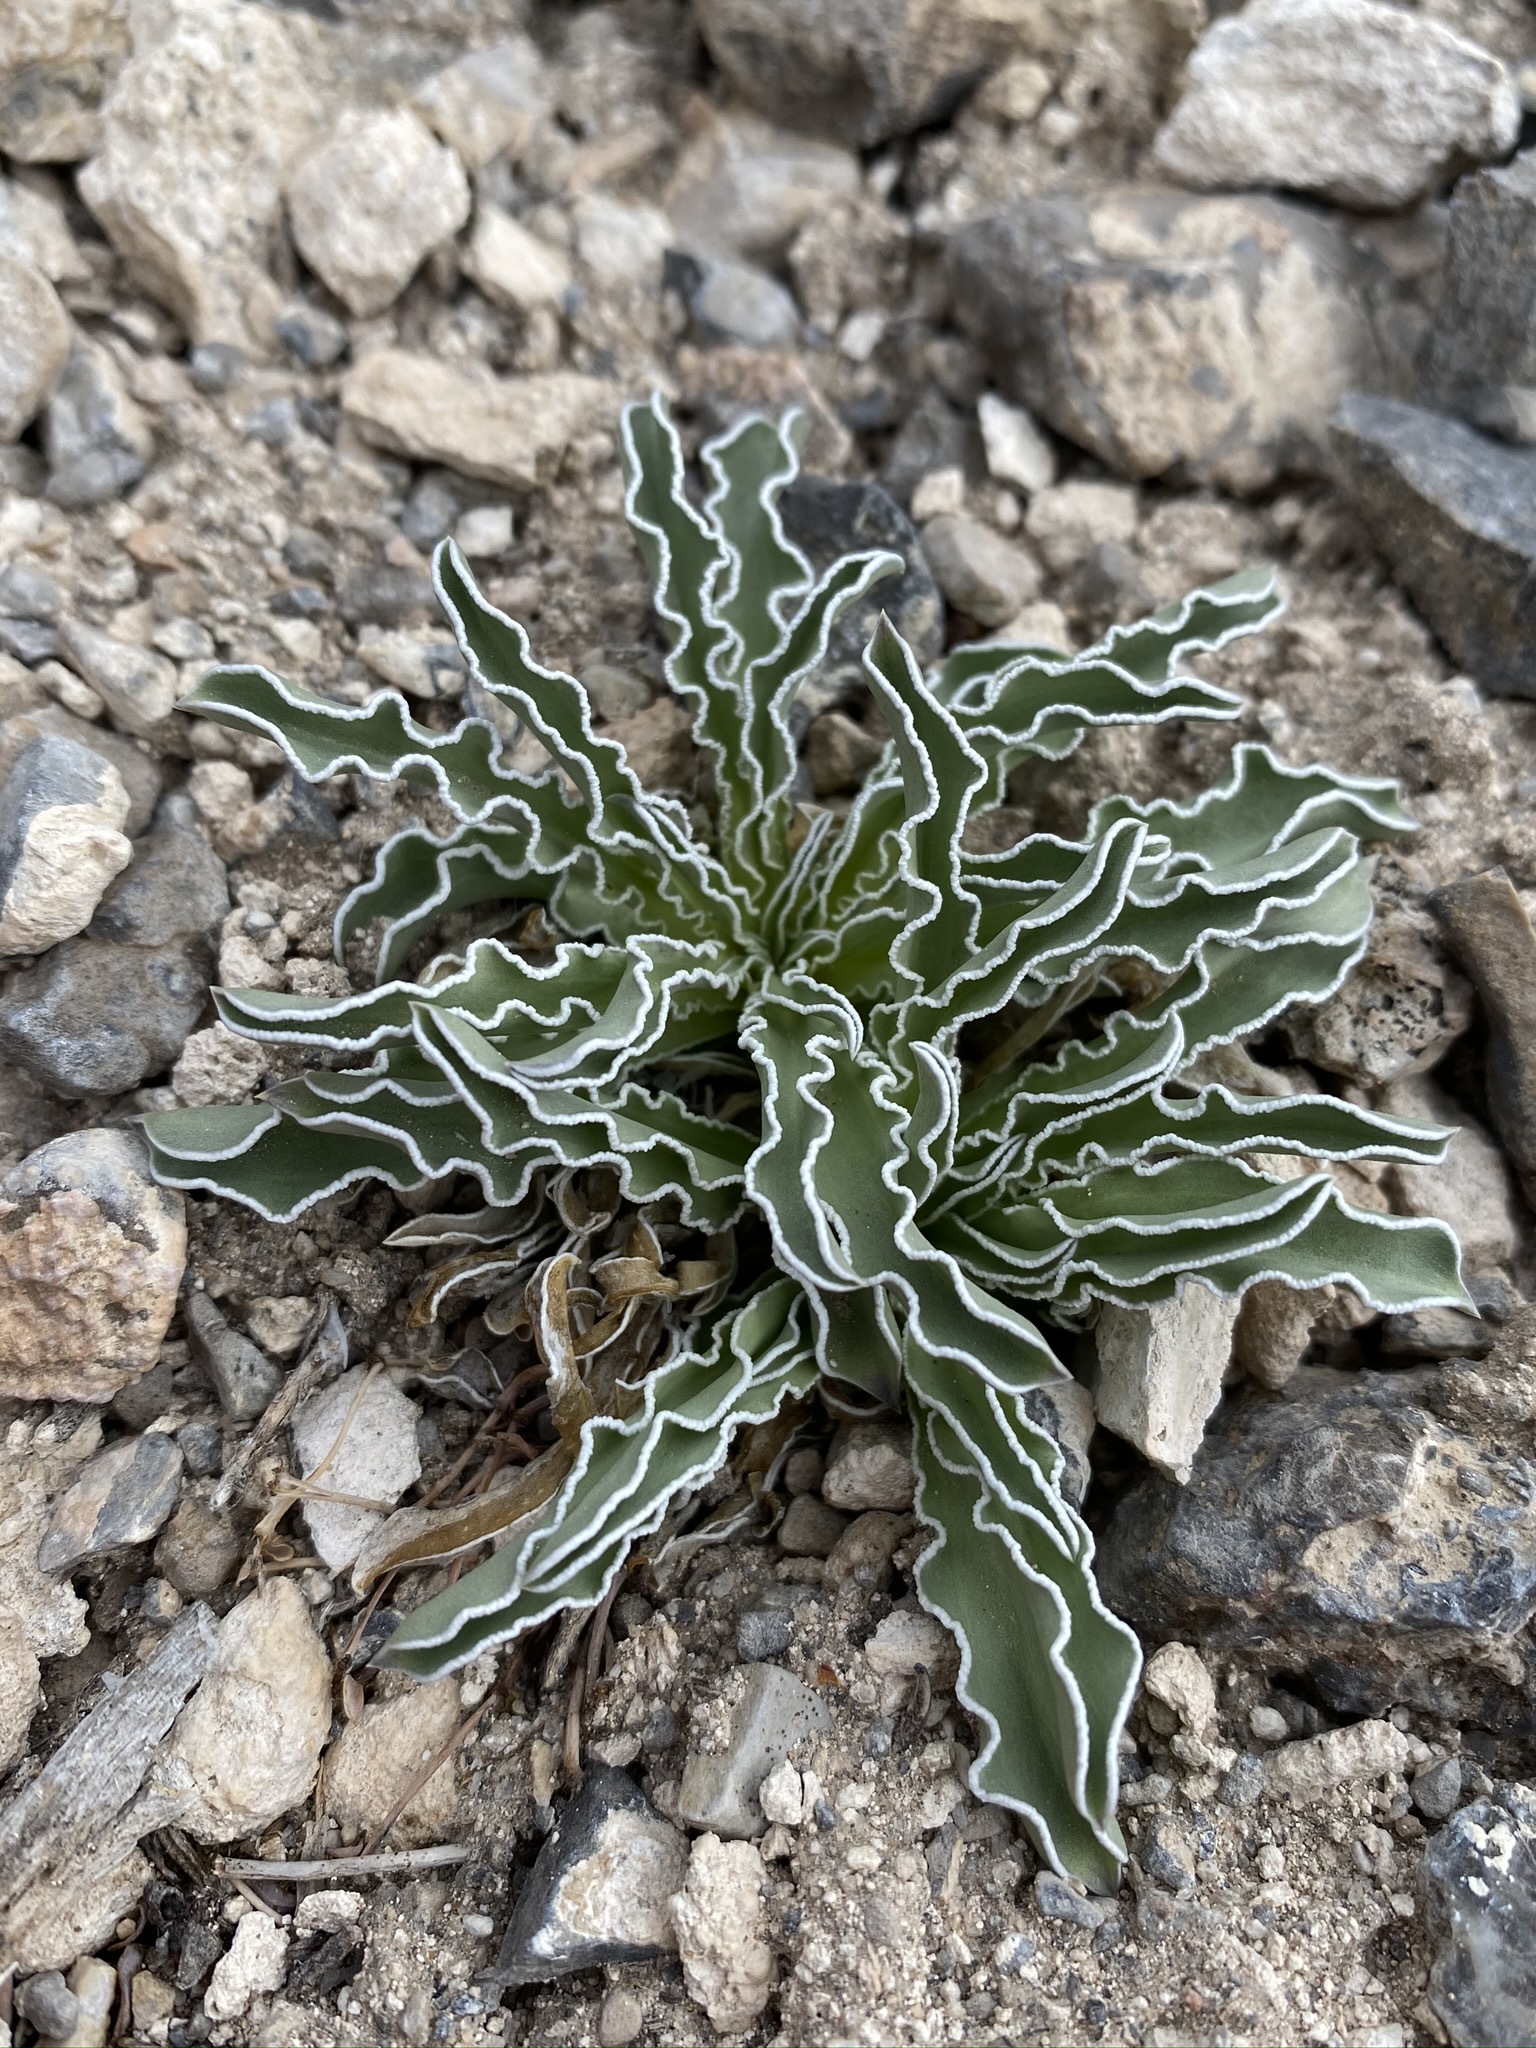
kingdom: Plantae
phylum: Tracheophyta
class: Magnoliopsida
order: Gentianales
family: Gentianaceae
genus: Frasera
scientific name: Frasera albomarginata
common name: Desert frasera
